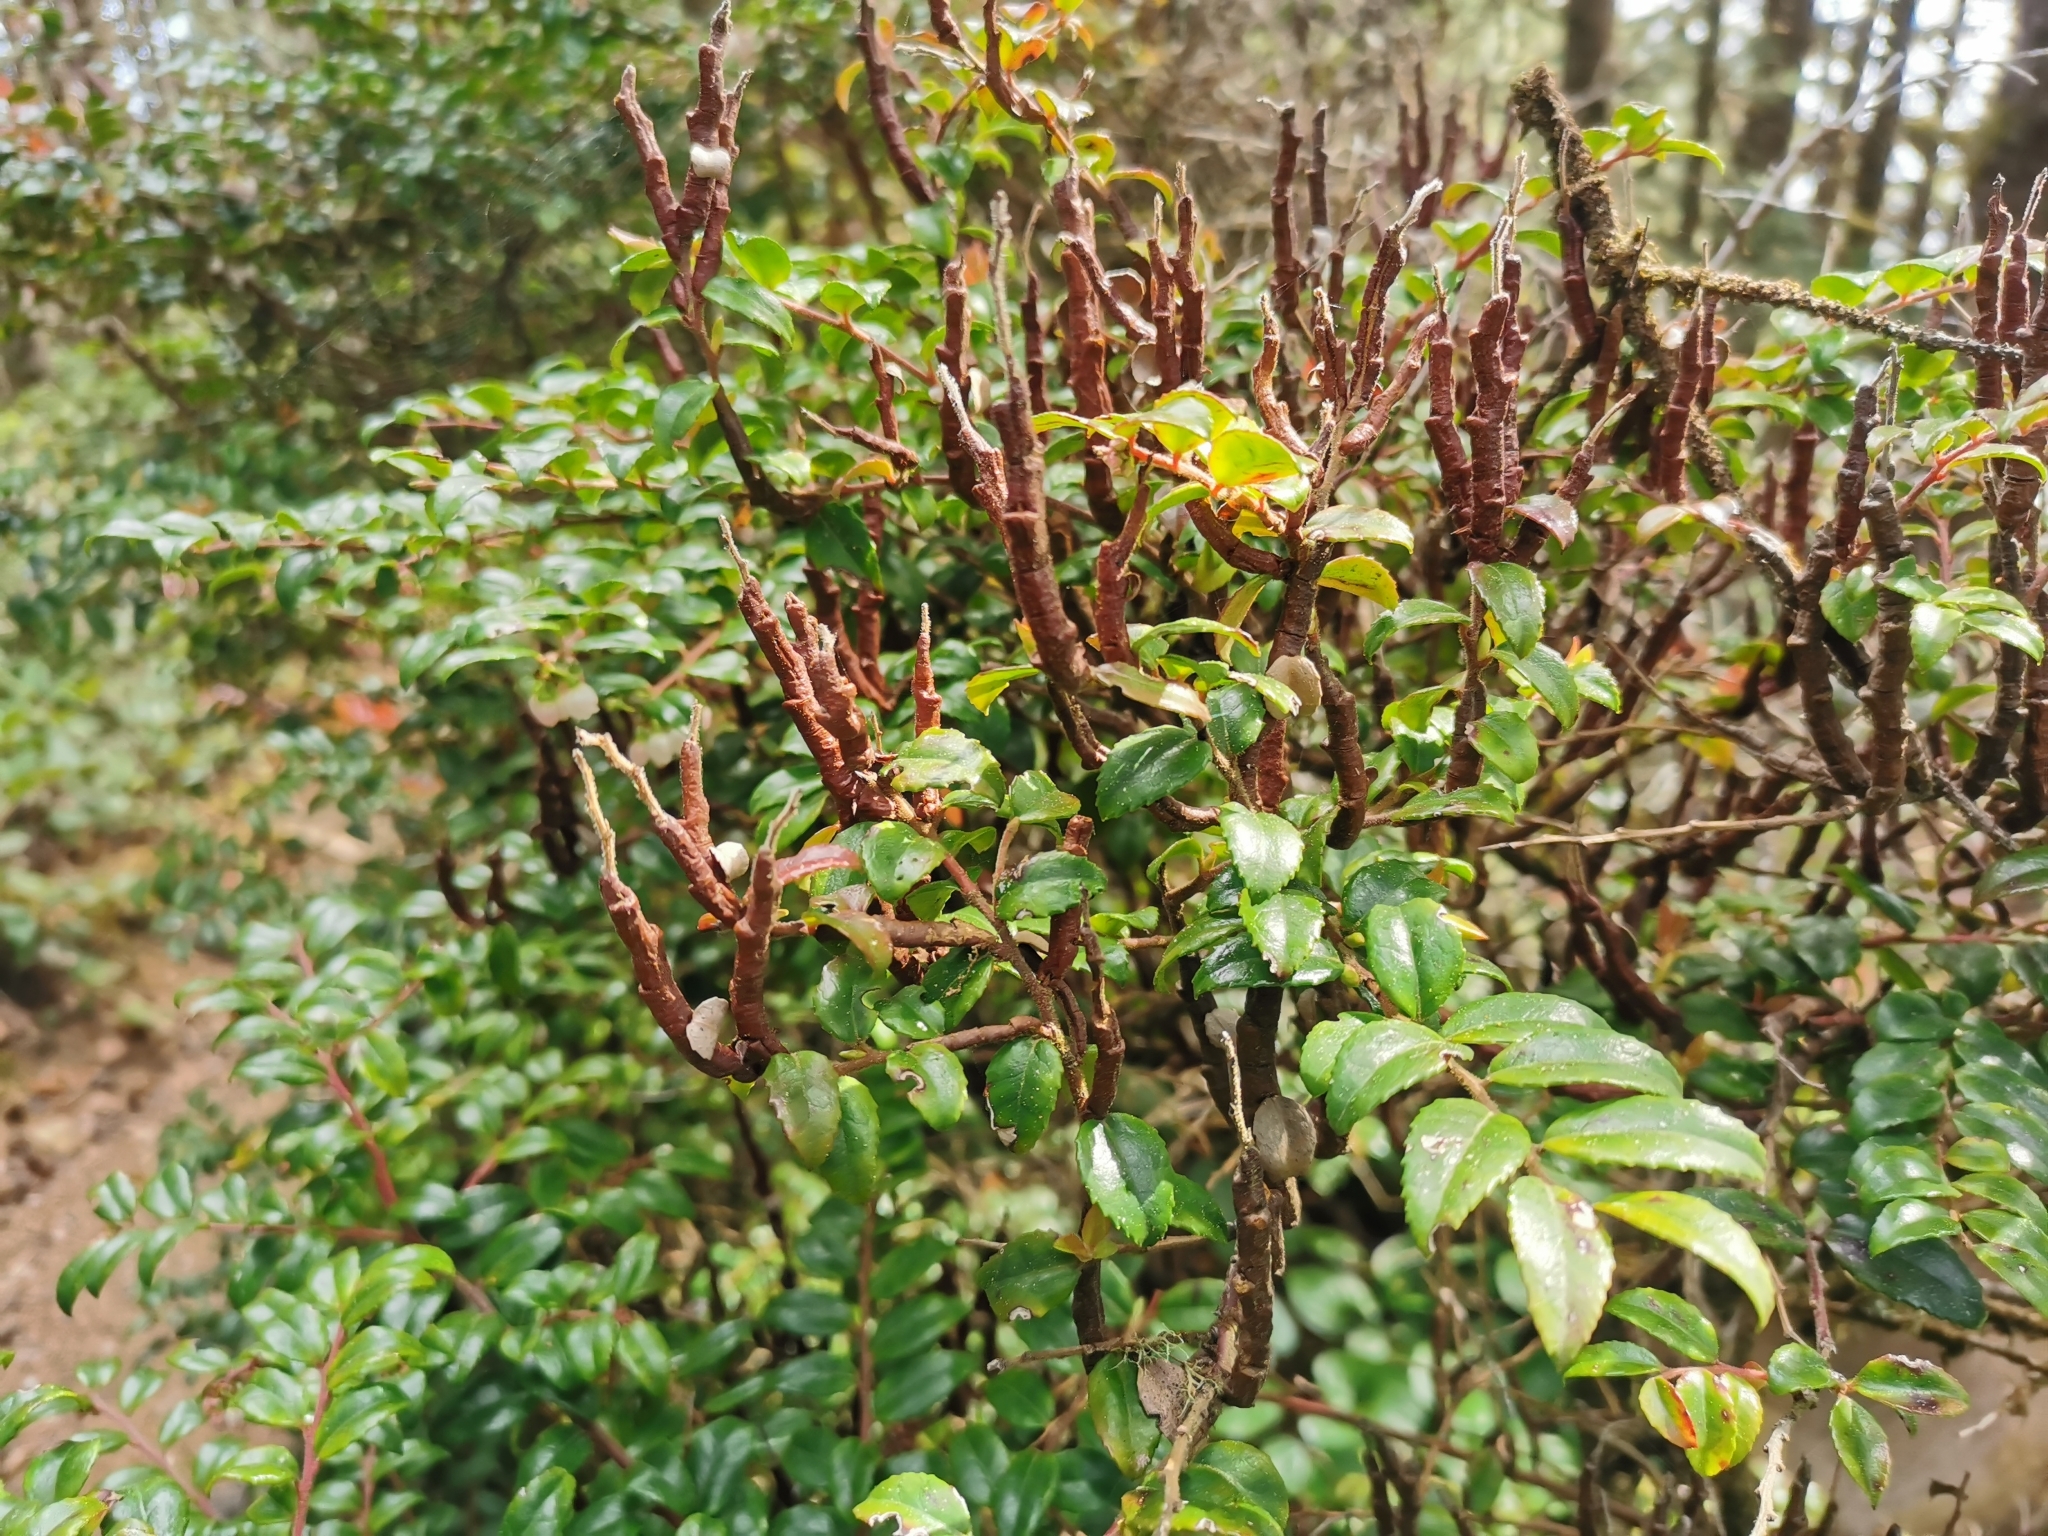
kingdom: Fungi
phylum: Basidiomycota
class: Pucciniomycetes
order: Pucciniales
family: Pucciniastraceae
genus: Calyptospora
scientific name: Calyptospora
